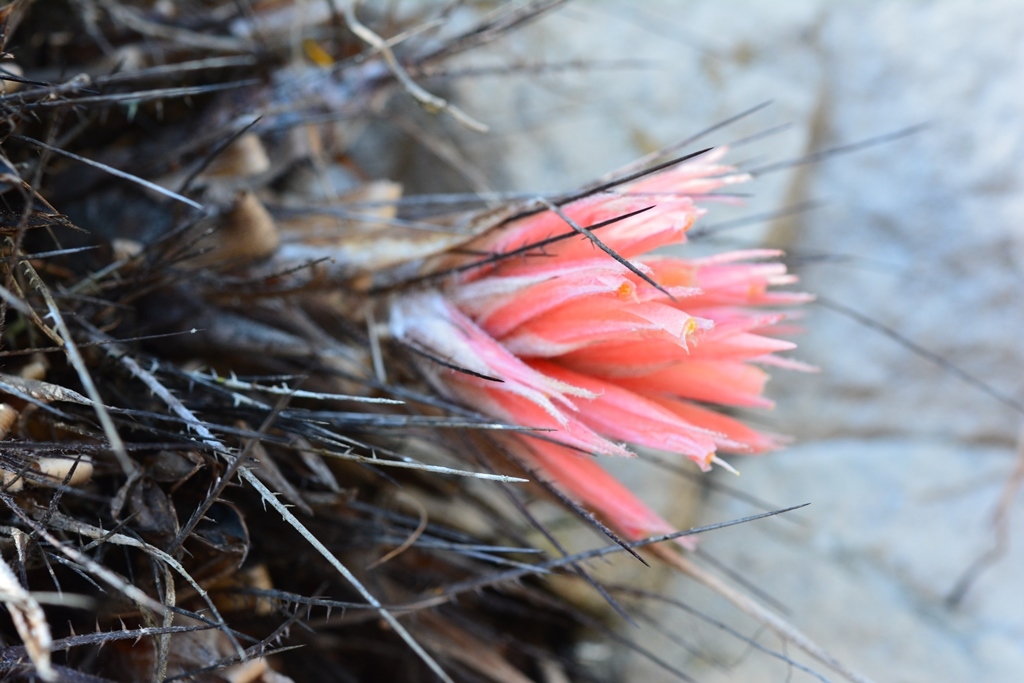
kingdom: Plantae
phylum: Tracheophyta
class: Liliopsida
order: Poales
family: Bromeliaceae
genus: Pitcairnia
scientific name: Pitcairnia heterophylla
